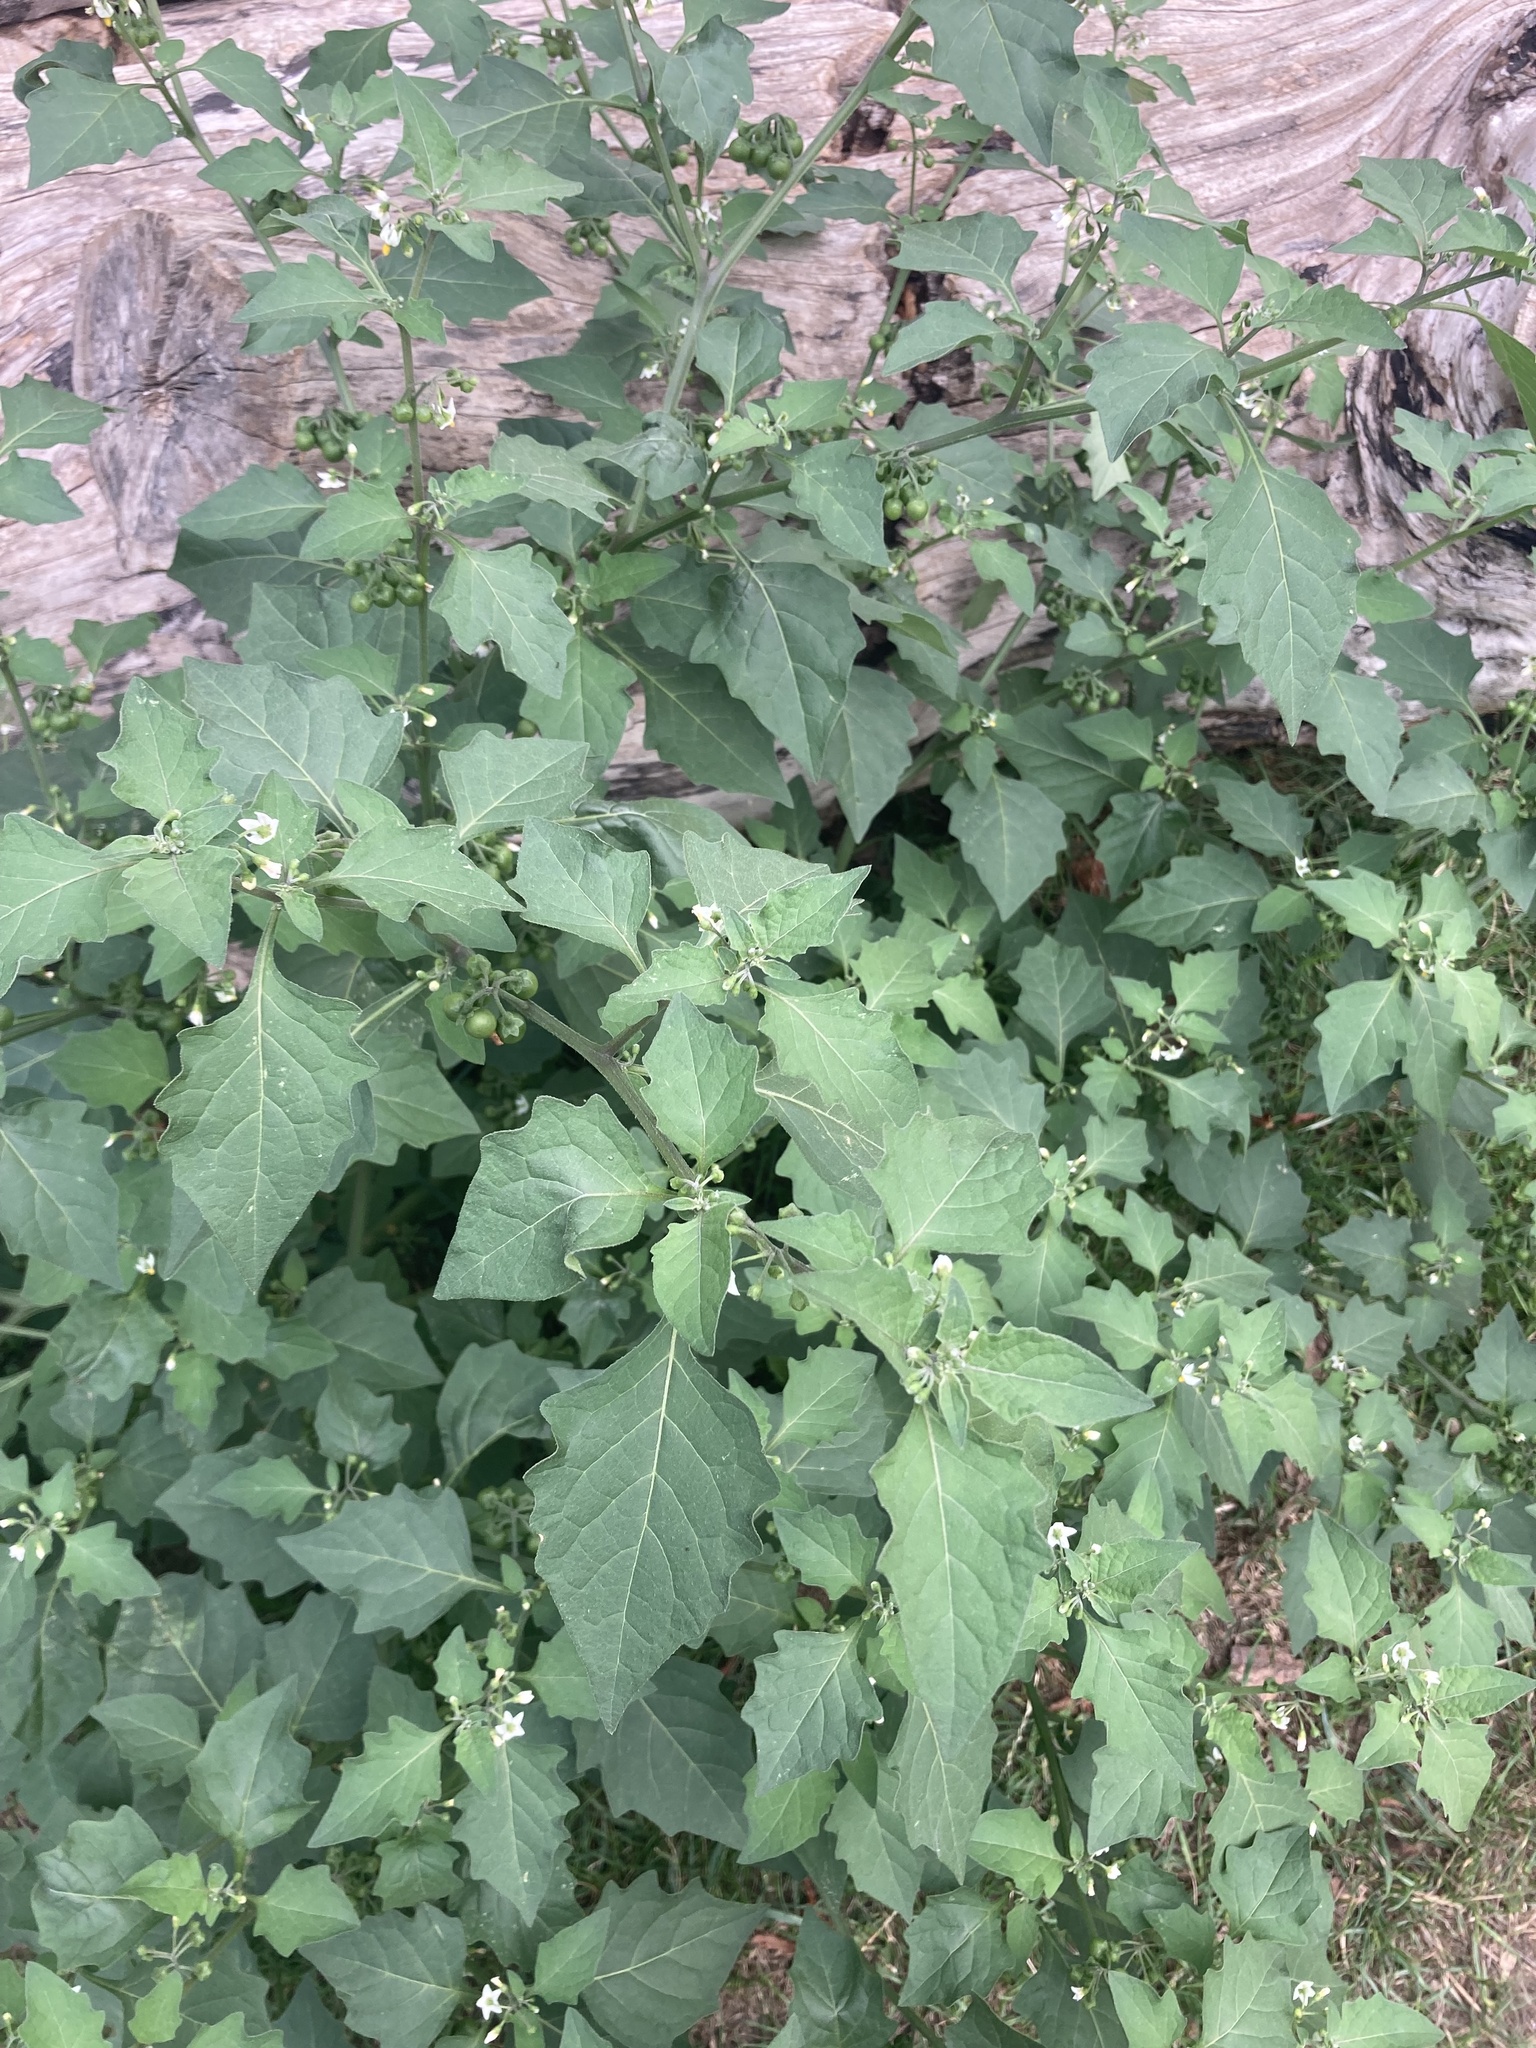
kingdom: Plantae
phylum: Tracheophyta
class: Magnoliopsida
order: Solanales
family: Solanaceae
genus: Solanum
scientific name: Solanum nigrum
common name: Black nightshade
